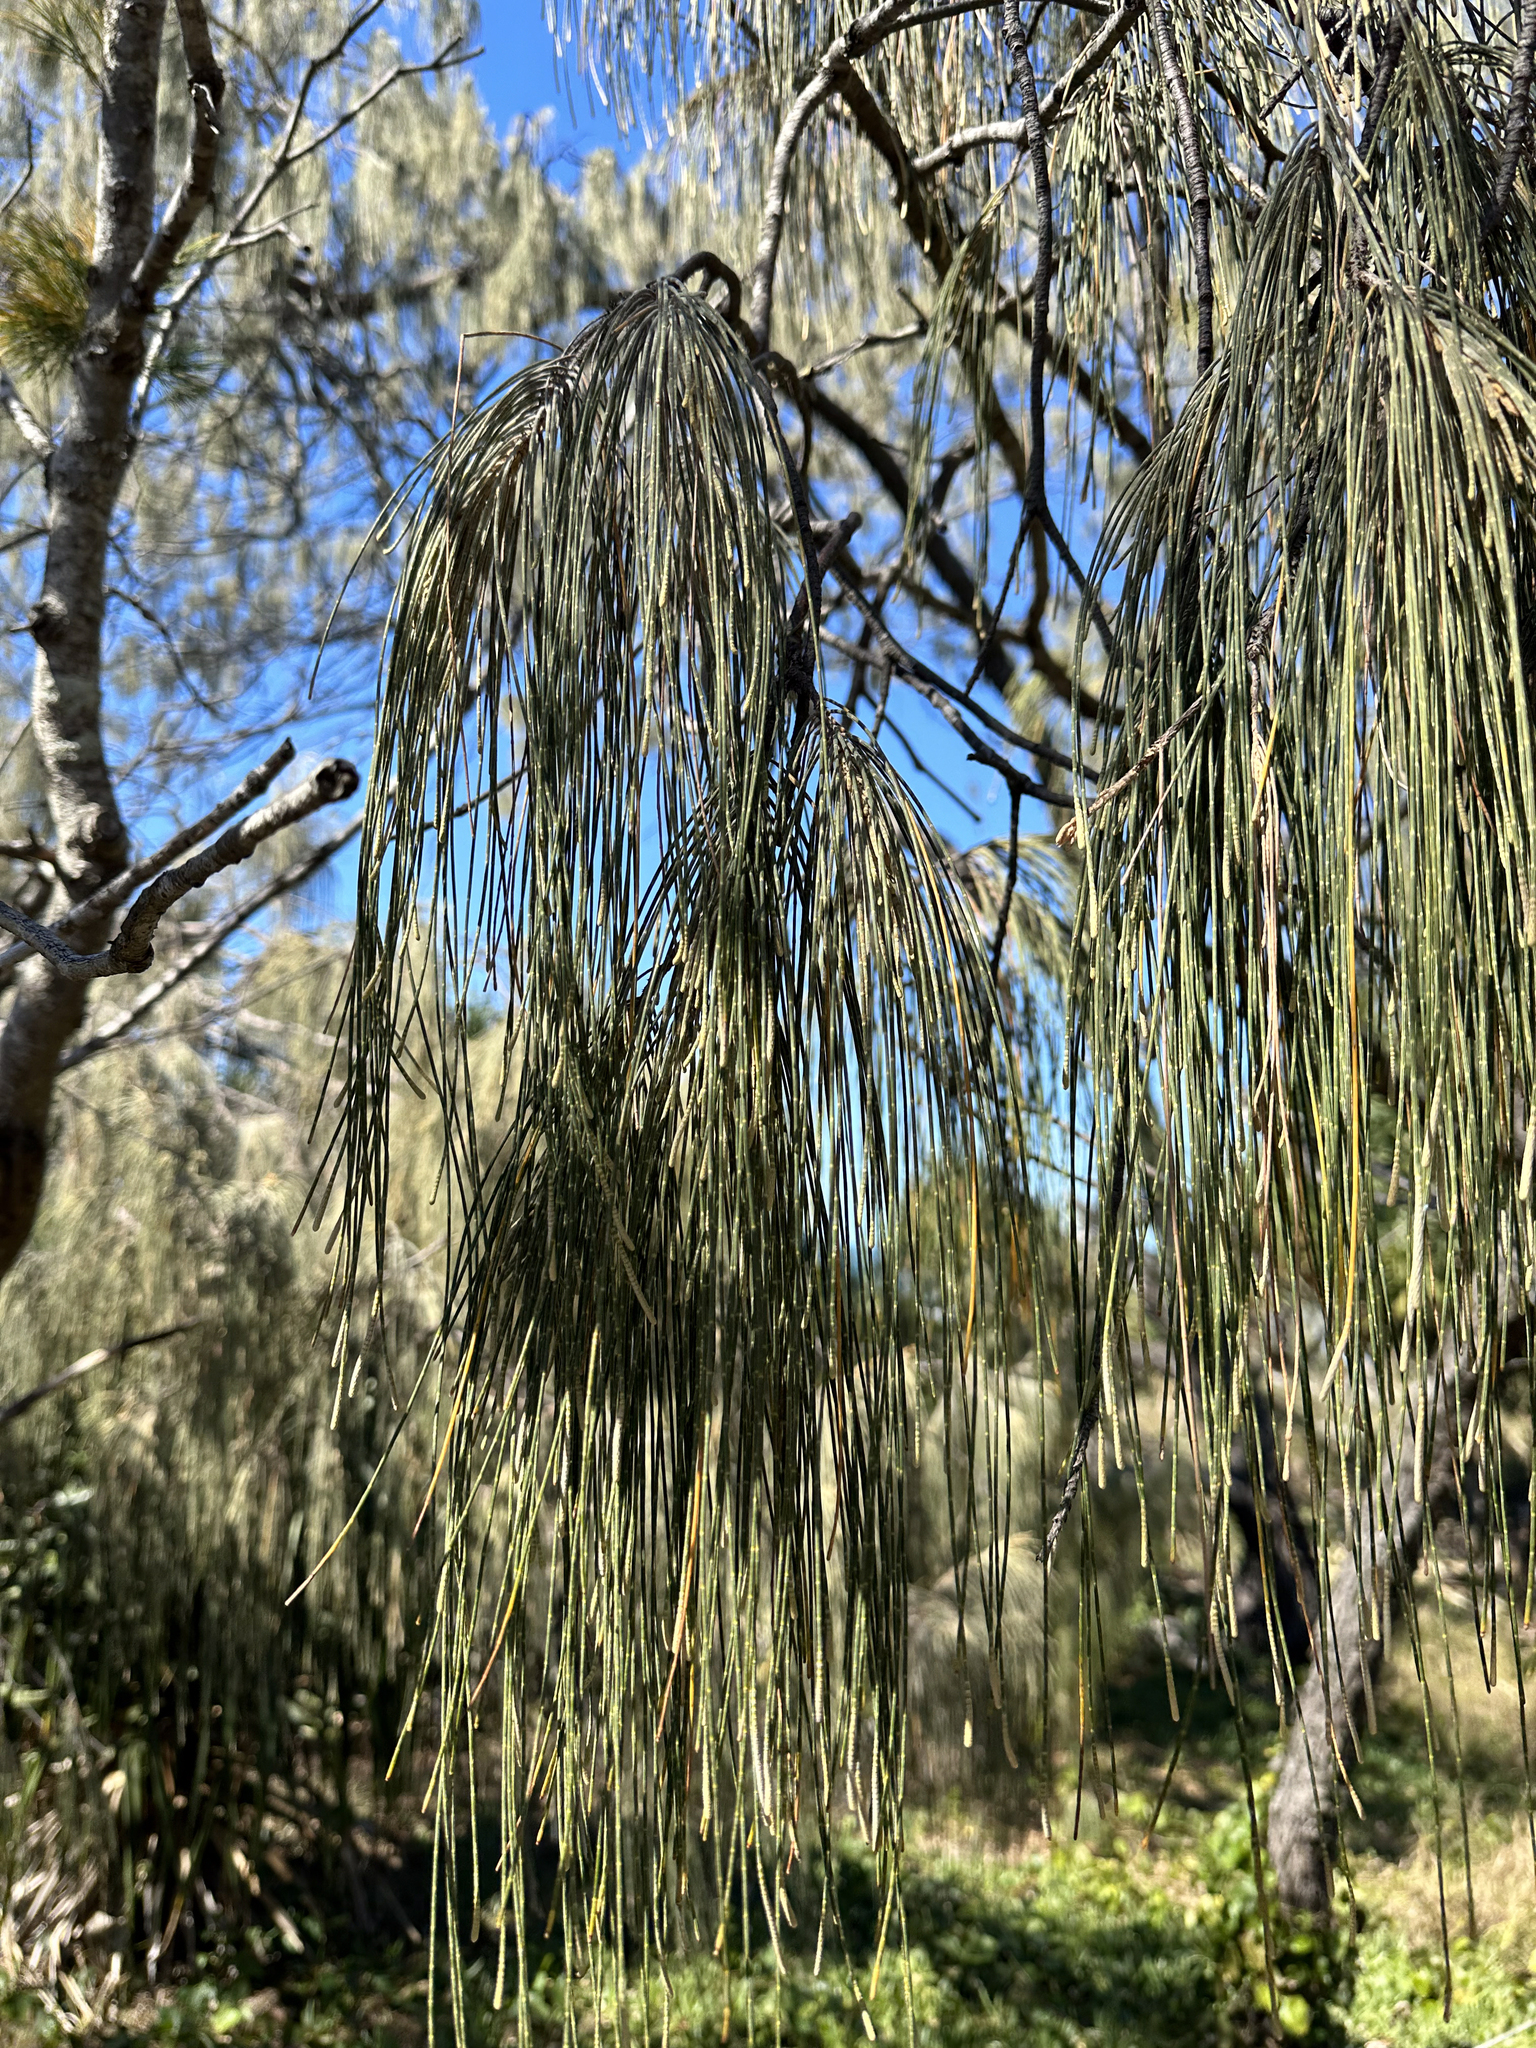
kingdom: Plantae
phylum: Tracheophyta
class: Magnoliopsida
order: Fagales
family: Casuarinaceae
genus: Casuarina
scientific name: Casuarina equisetifolia
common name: Beach sheoak
